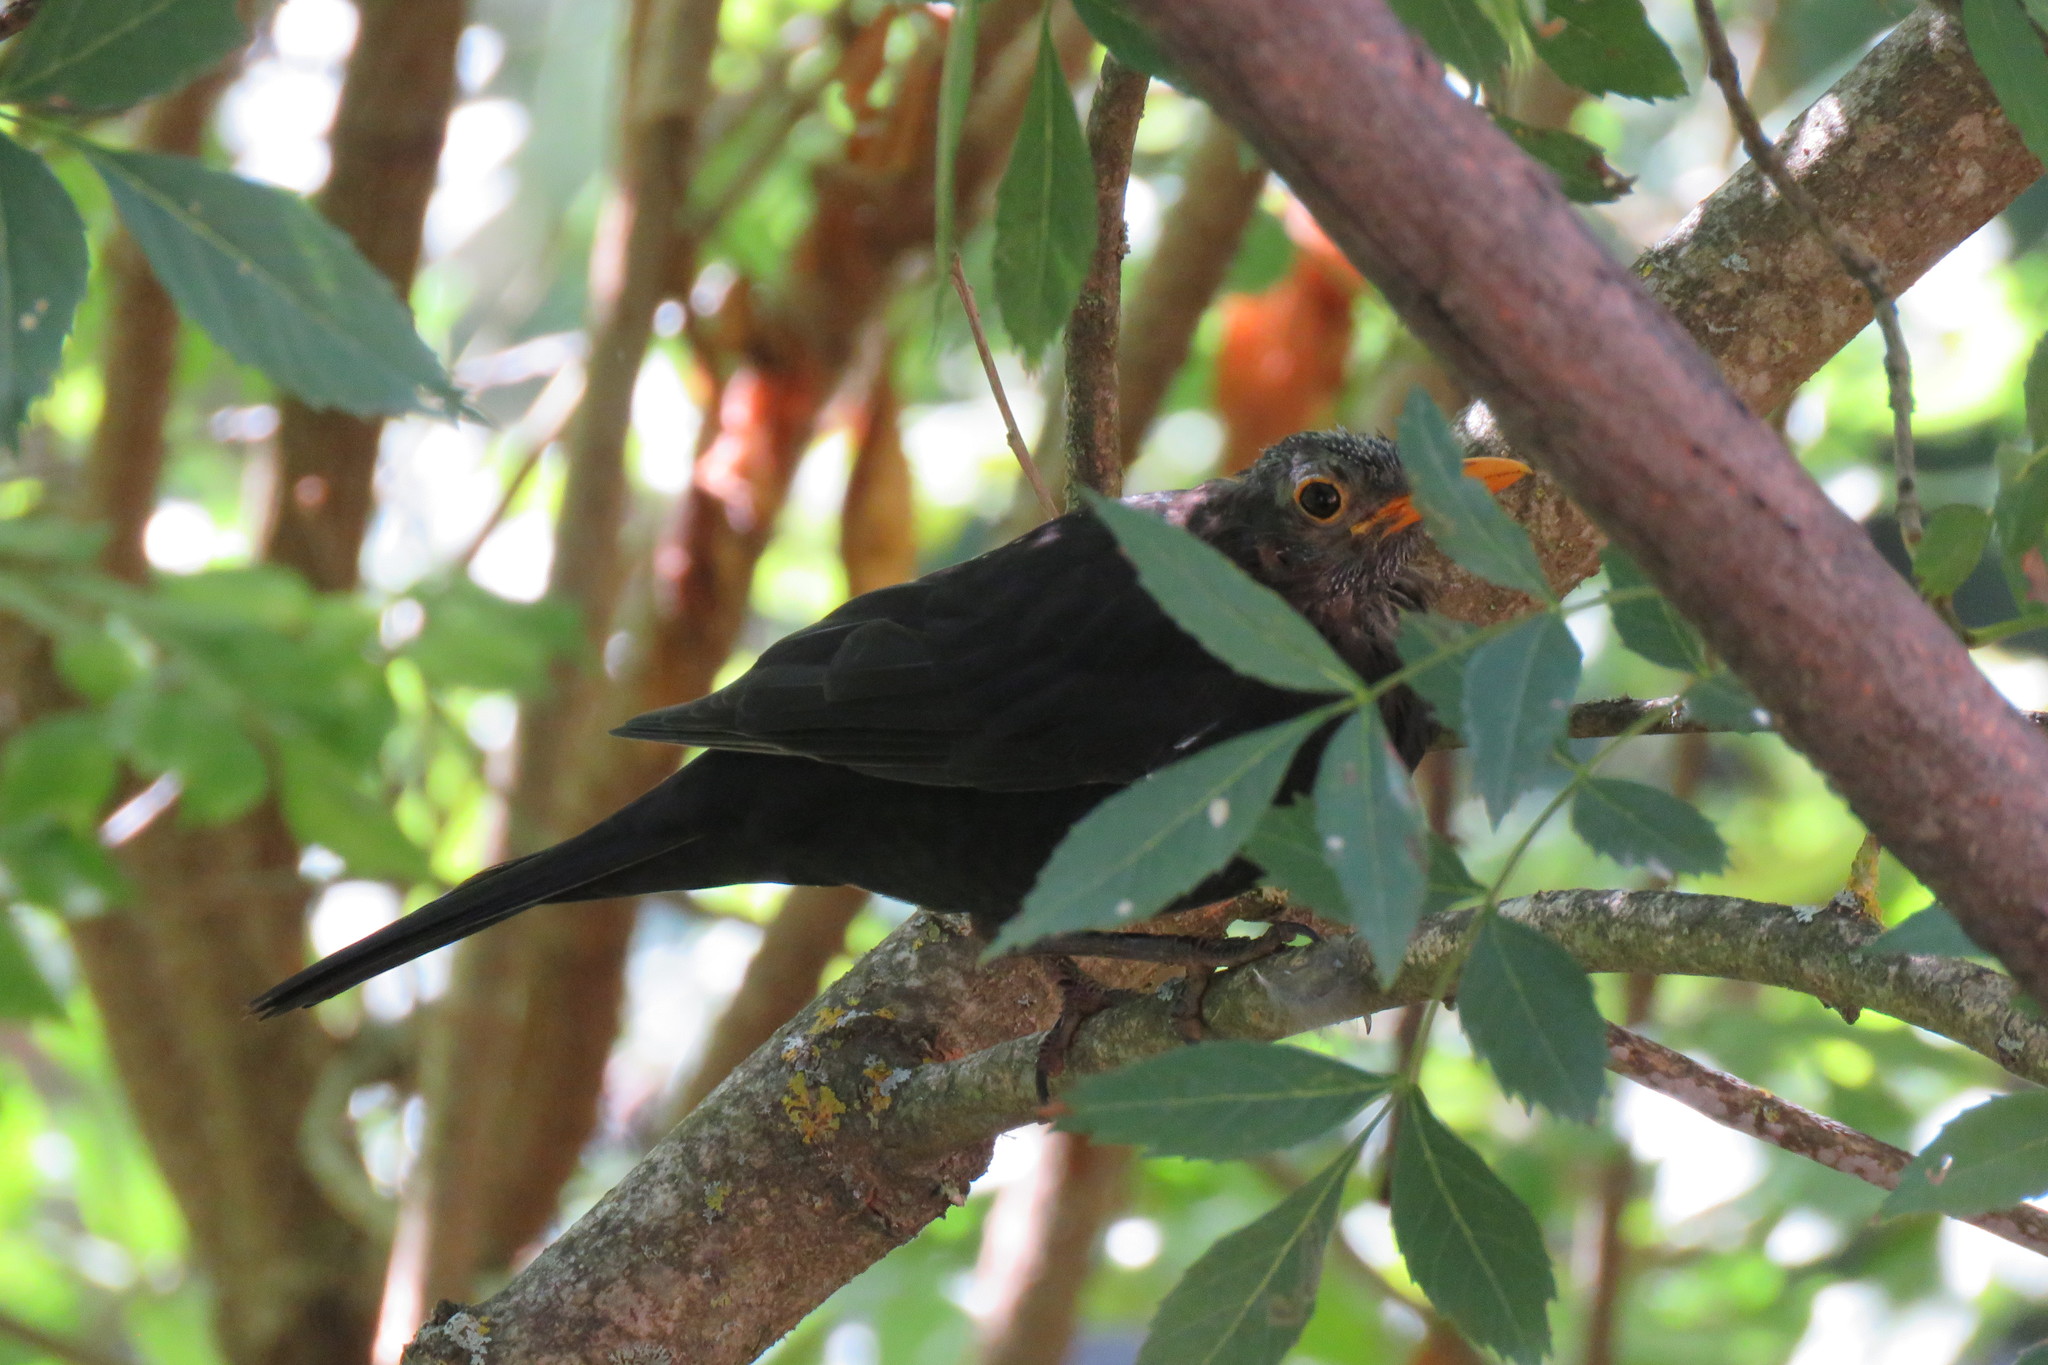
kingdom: Animalia
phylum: Chordata
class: Aves
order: Passeriformes
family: Turdidae
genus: Turdus
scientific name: Turdus merula
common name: Common blackbird
